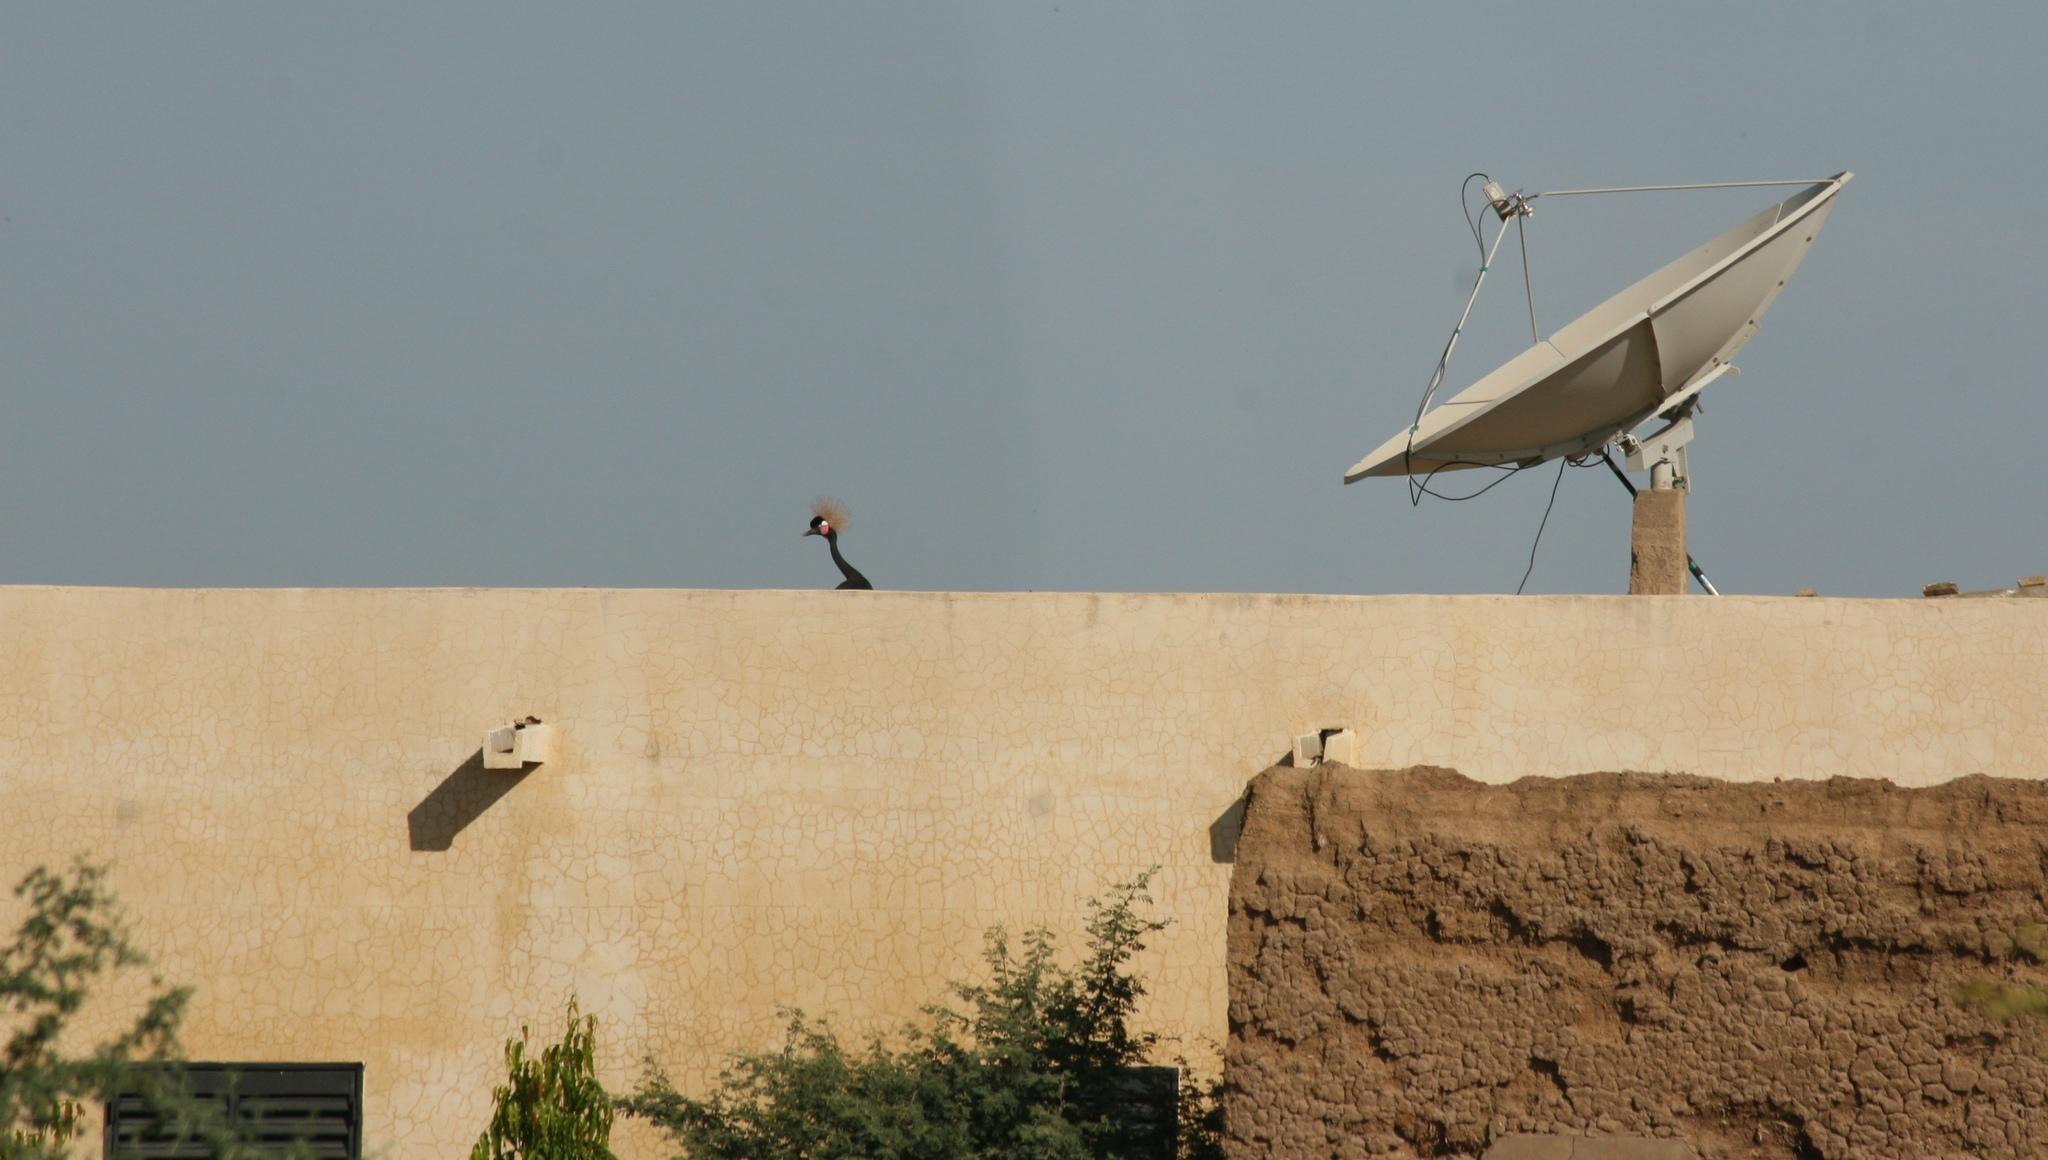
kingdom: Animalia
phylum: Chordata
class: Aves
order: Gruiformes
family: Gruidae
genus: Balearica
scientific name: Balearica pavonina
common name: Black crowned crane
